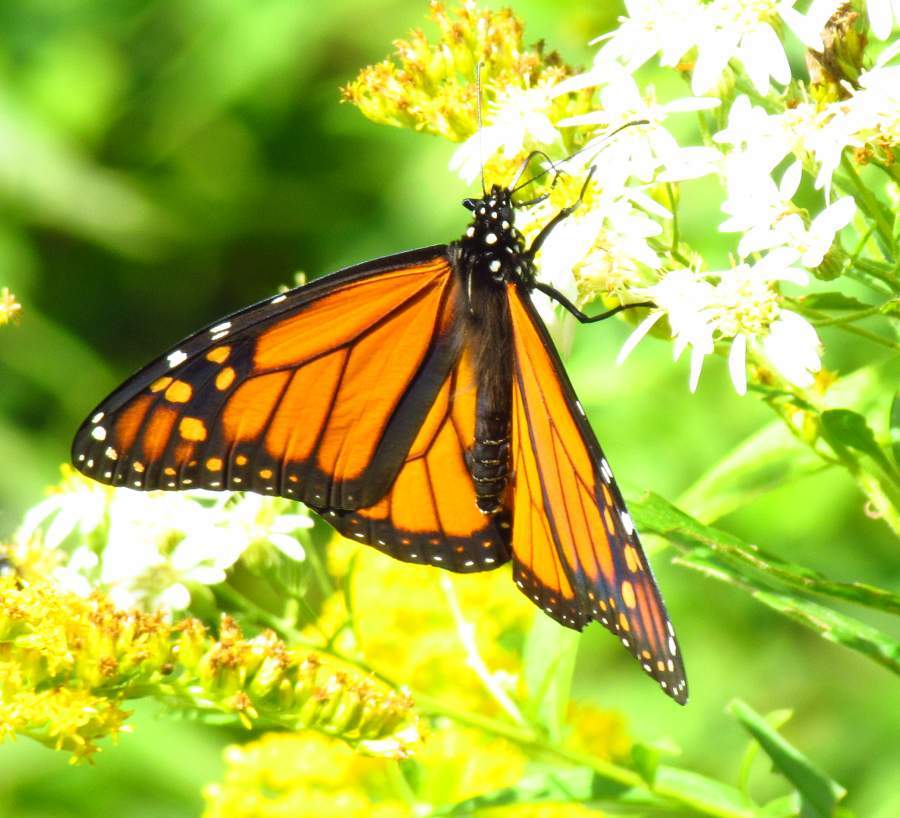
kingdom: Animalia
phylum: Arthropoda
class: Insecta
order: Lepidoptera
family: Nymphalidae
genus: Danaus
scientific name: Danaus plexippus
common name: Monarch
